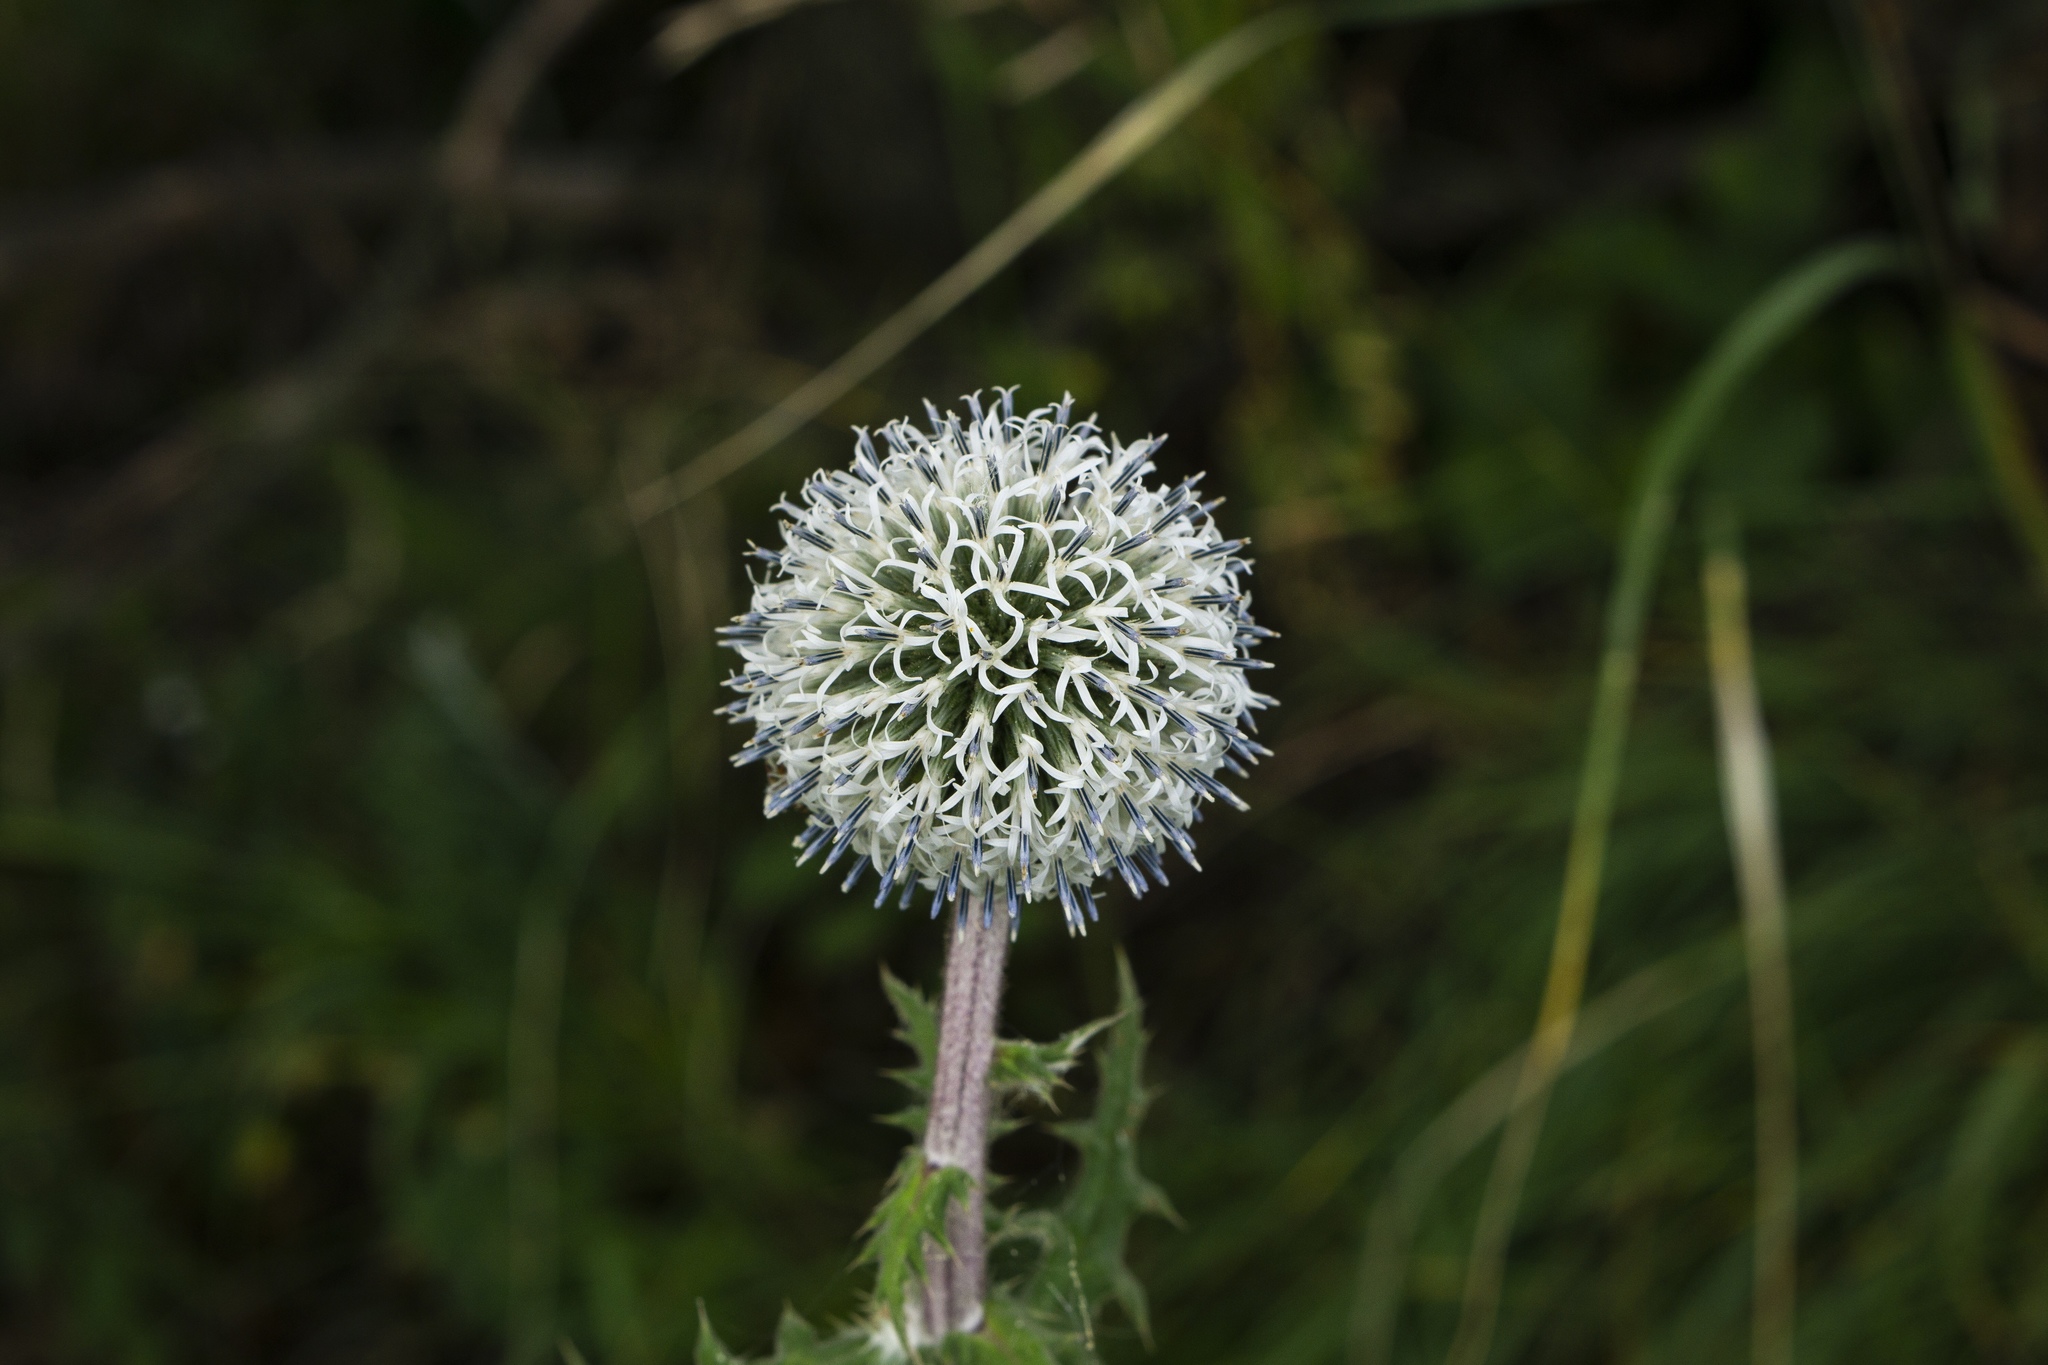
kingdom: Plantae
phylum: Tracheophyta
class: Magnoliopsida
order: Asterales
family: Asteraceae
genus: Echinops
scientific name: Echinops sphaerocephalus
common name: Glandular globe-thistle
